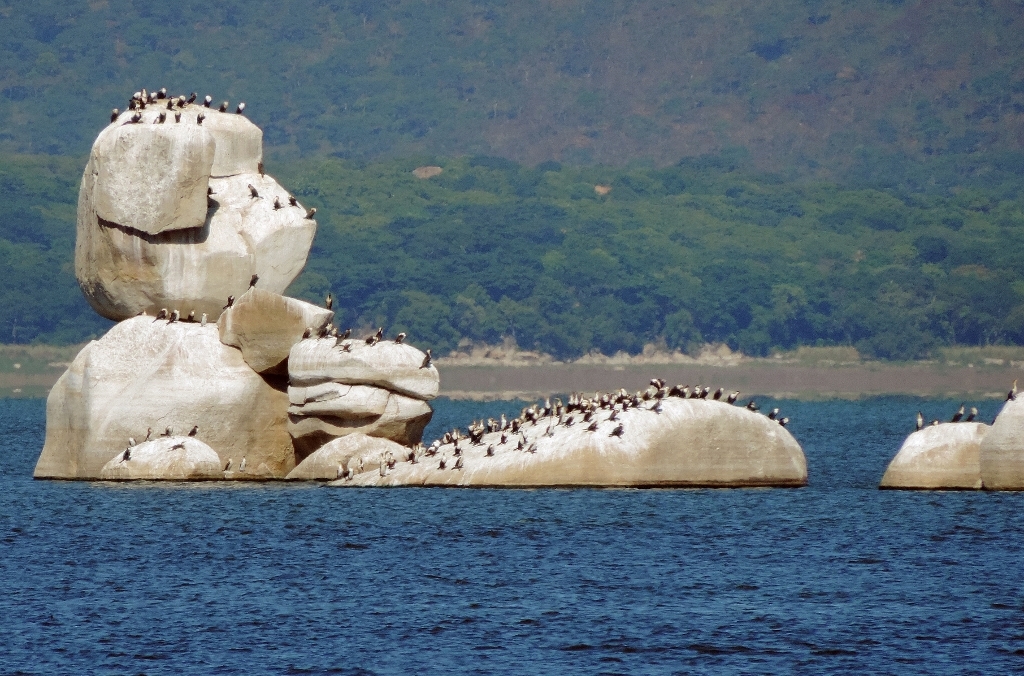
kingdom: Animalia
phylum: Chordata
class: Aves
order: Suliformes
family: Phalacrocoracidae
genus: Phalacrocorax
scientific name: Phalacrocorax carbo
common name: Great cormorant
